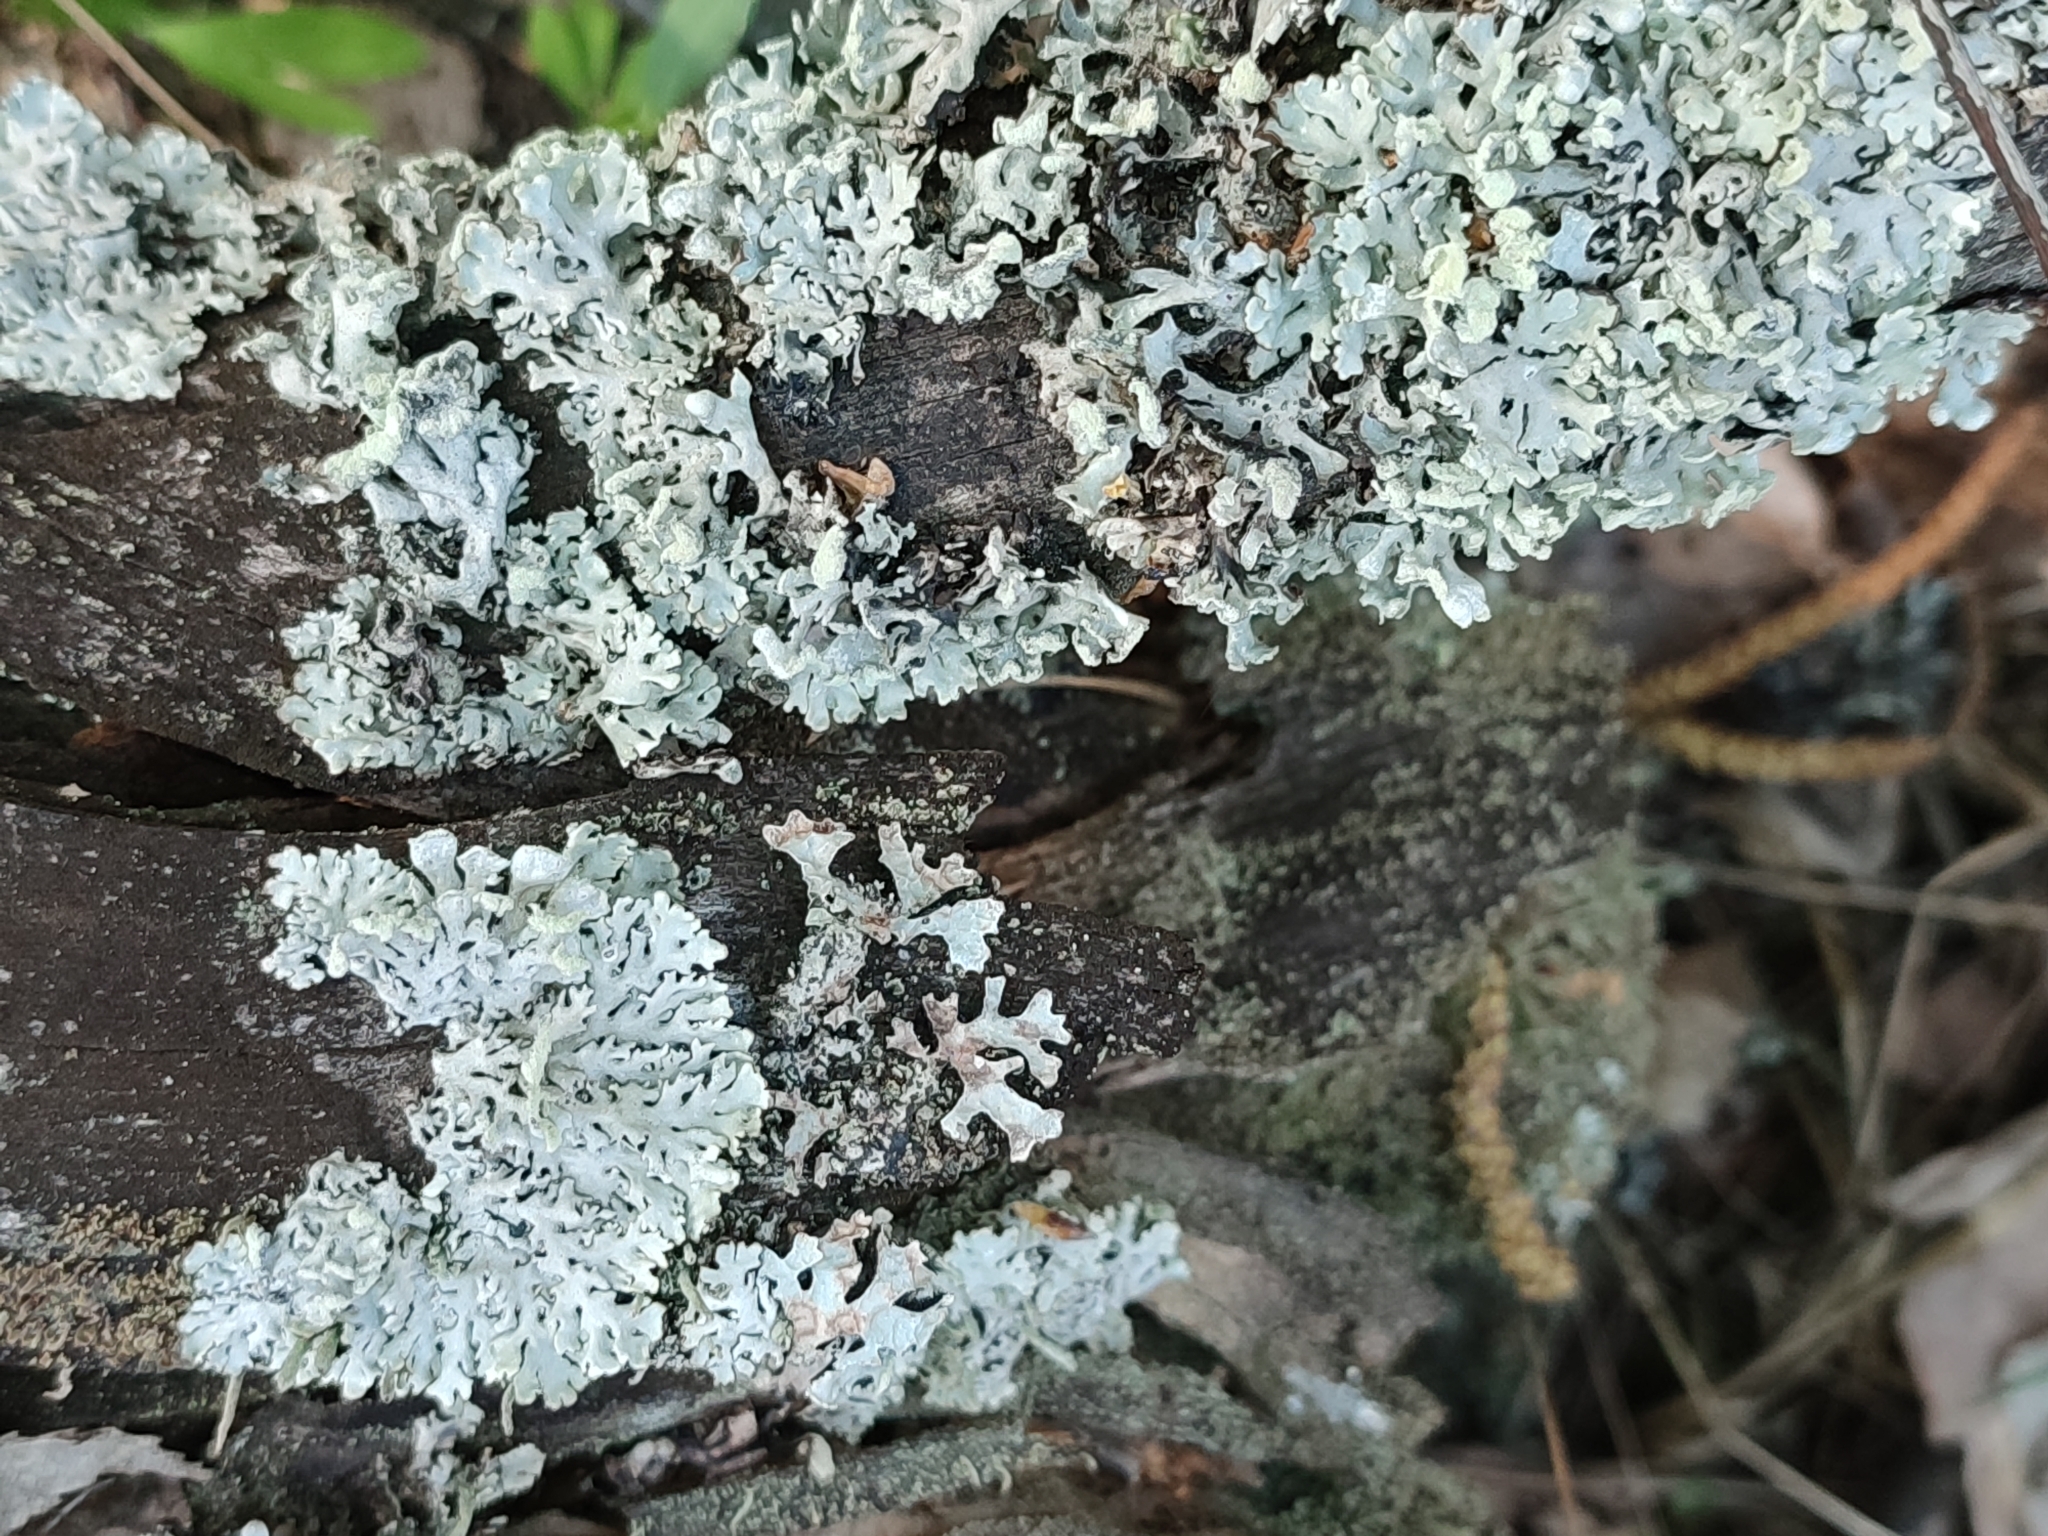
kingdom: Fungi
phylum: Ascomycota
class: Lecanoromycetes
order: Lecanorales
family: Parmeliaceae
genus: Hypogymnia
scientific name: Hypogymnia physodes
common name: Dark crottle
